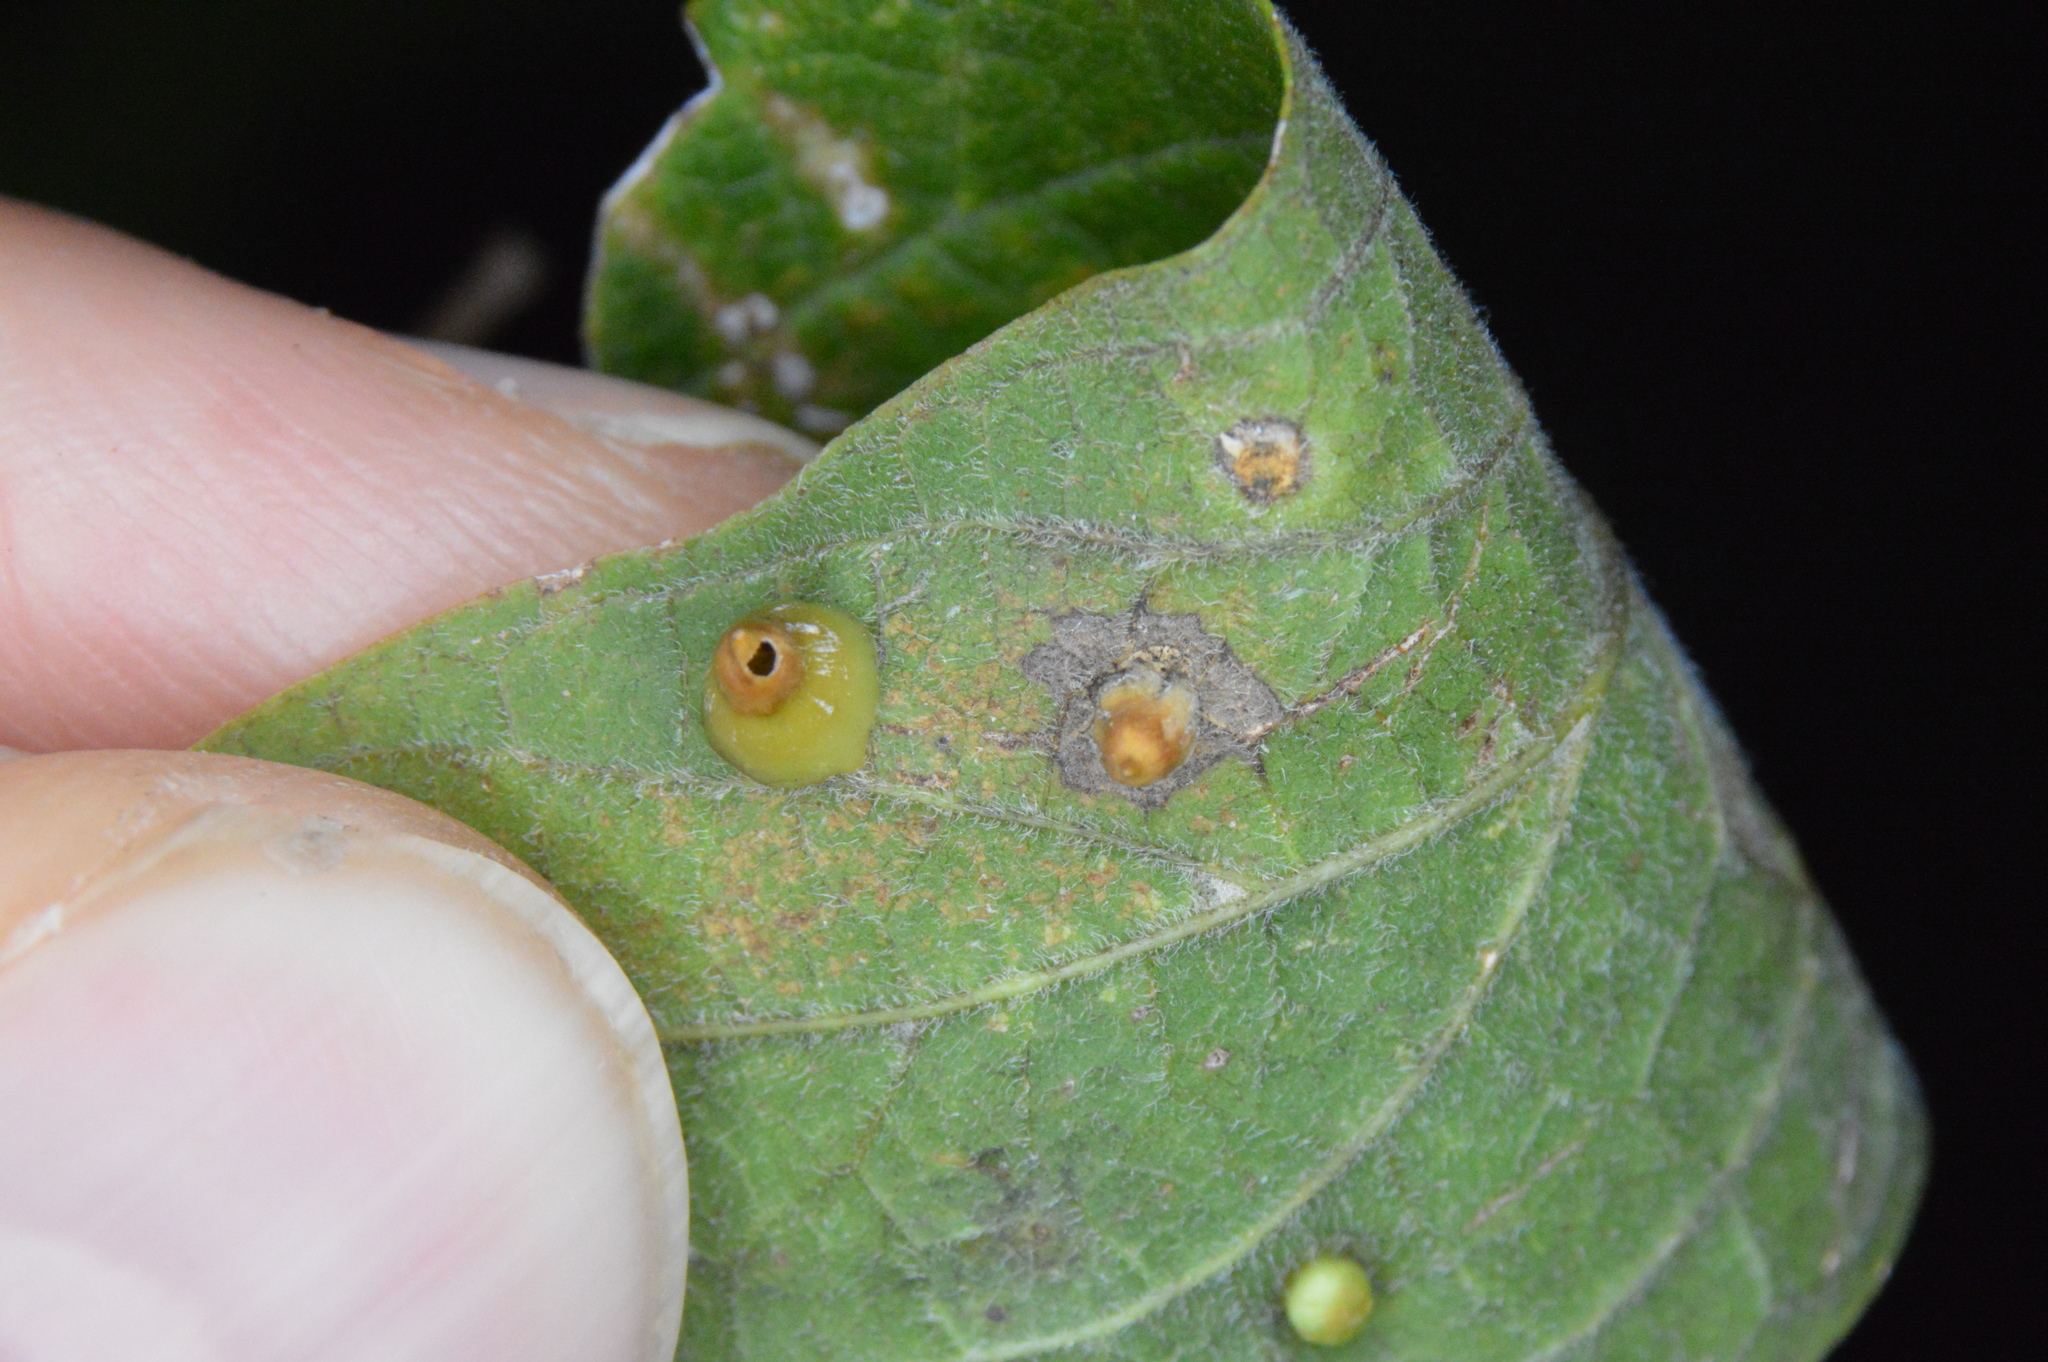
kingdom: Animalia
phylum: Arthropoda
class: Insecta
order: Diptera
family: Cecidomyiidae
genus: Celticecis
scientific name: Celticecis spiniformis
